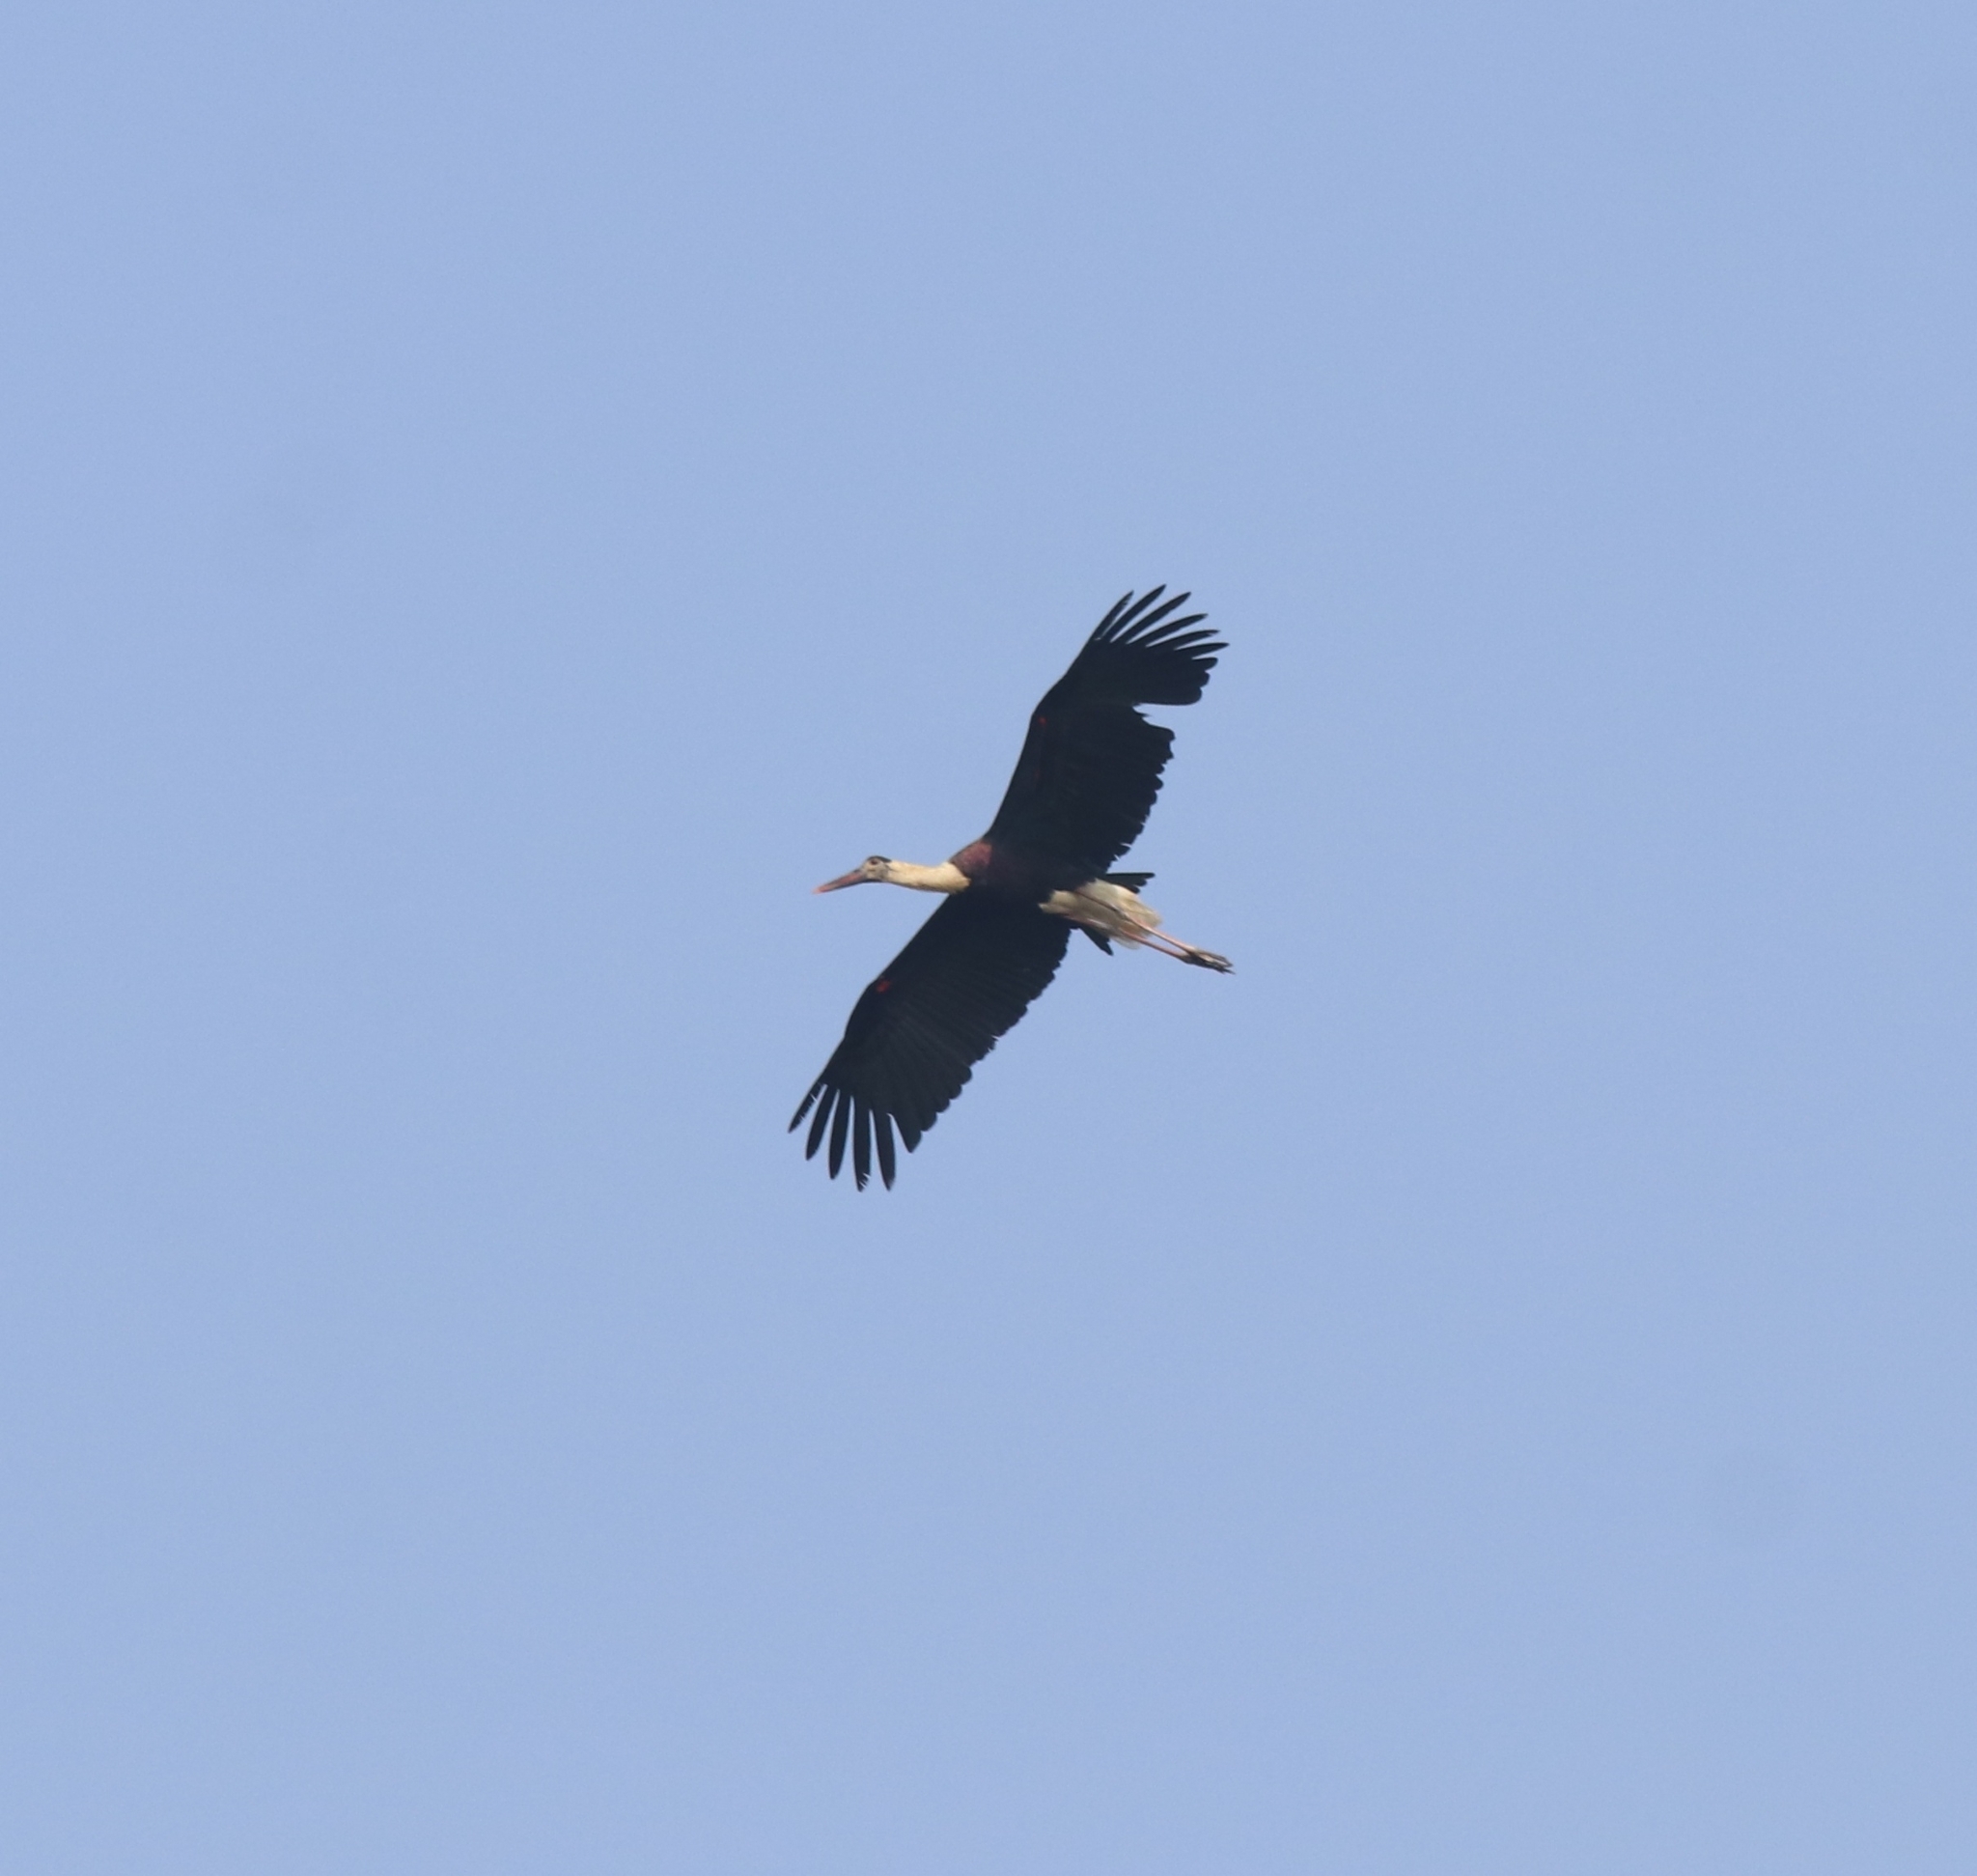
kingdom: Animalia
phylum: Chordata
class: Aves
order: Ciconiiformes
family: Ciconiidae
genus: Ciconia
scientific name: Ciconia episcopus
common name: Woolly-necked stork
